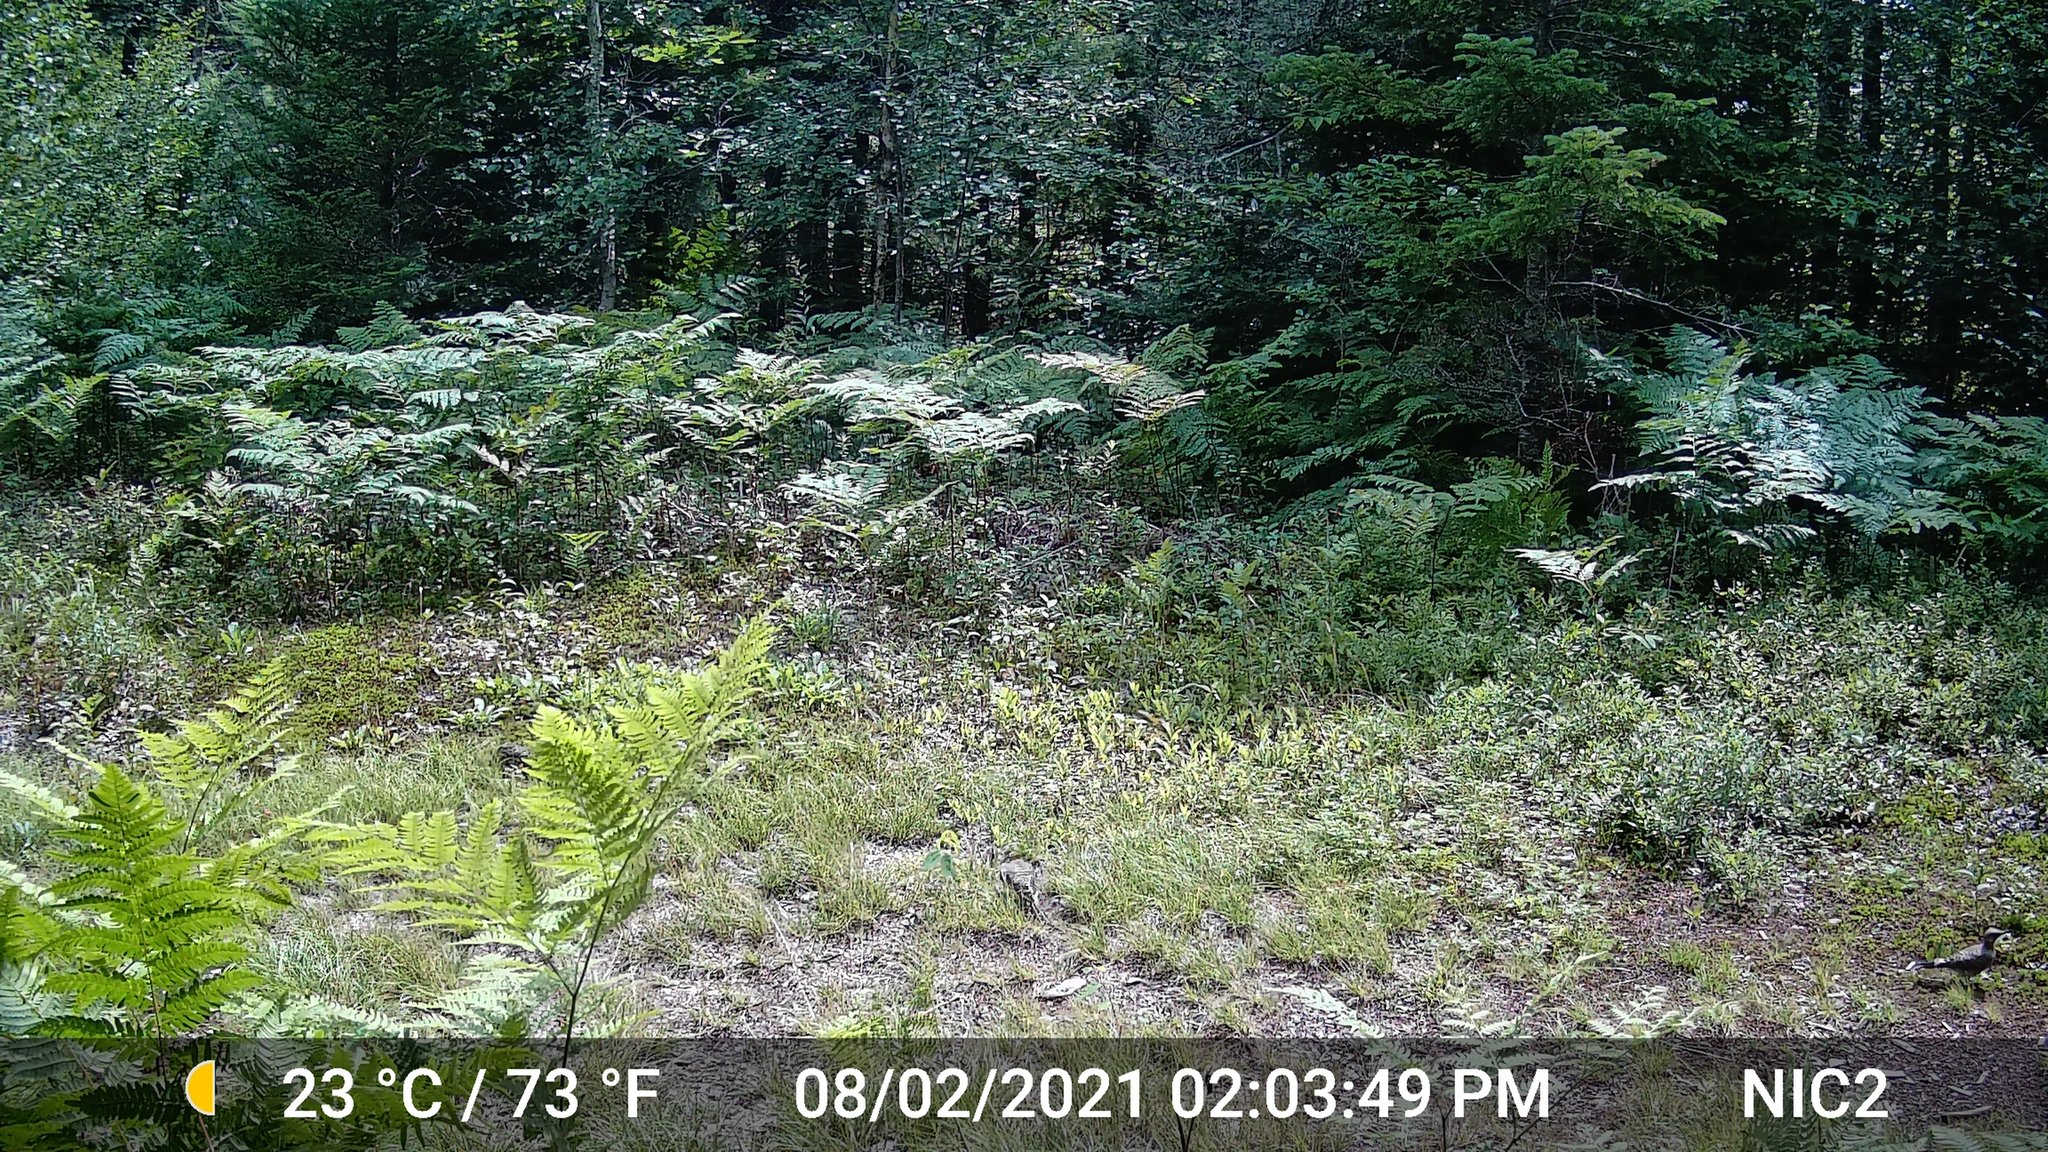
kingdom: Animalia
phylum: Chordata
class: Aves
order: Columbiformes
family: Columbidae
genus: Zenaida
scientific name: Zenaida macroura
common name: Mourning dove
